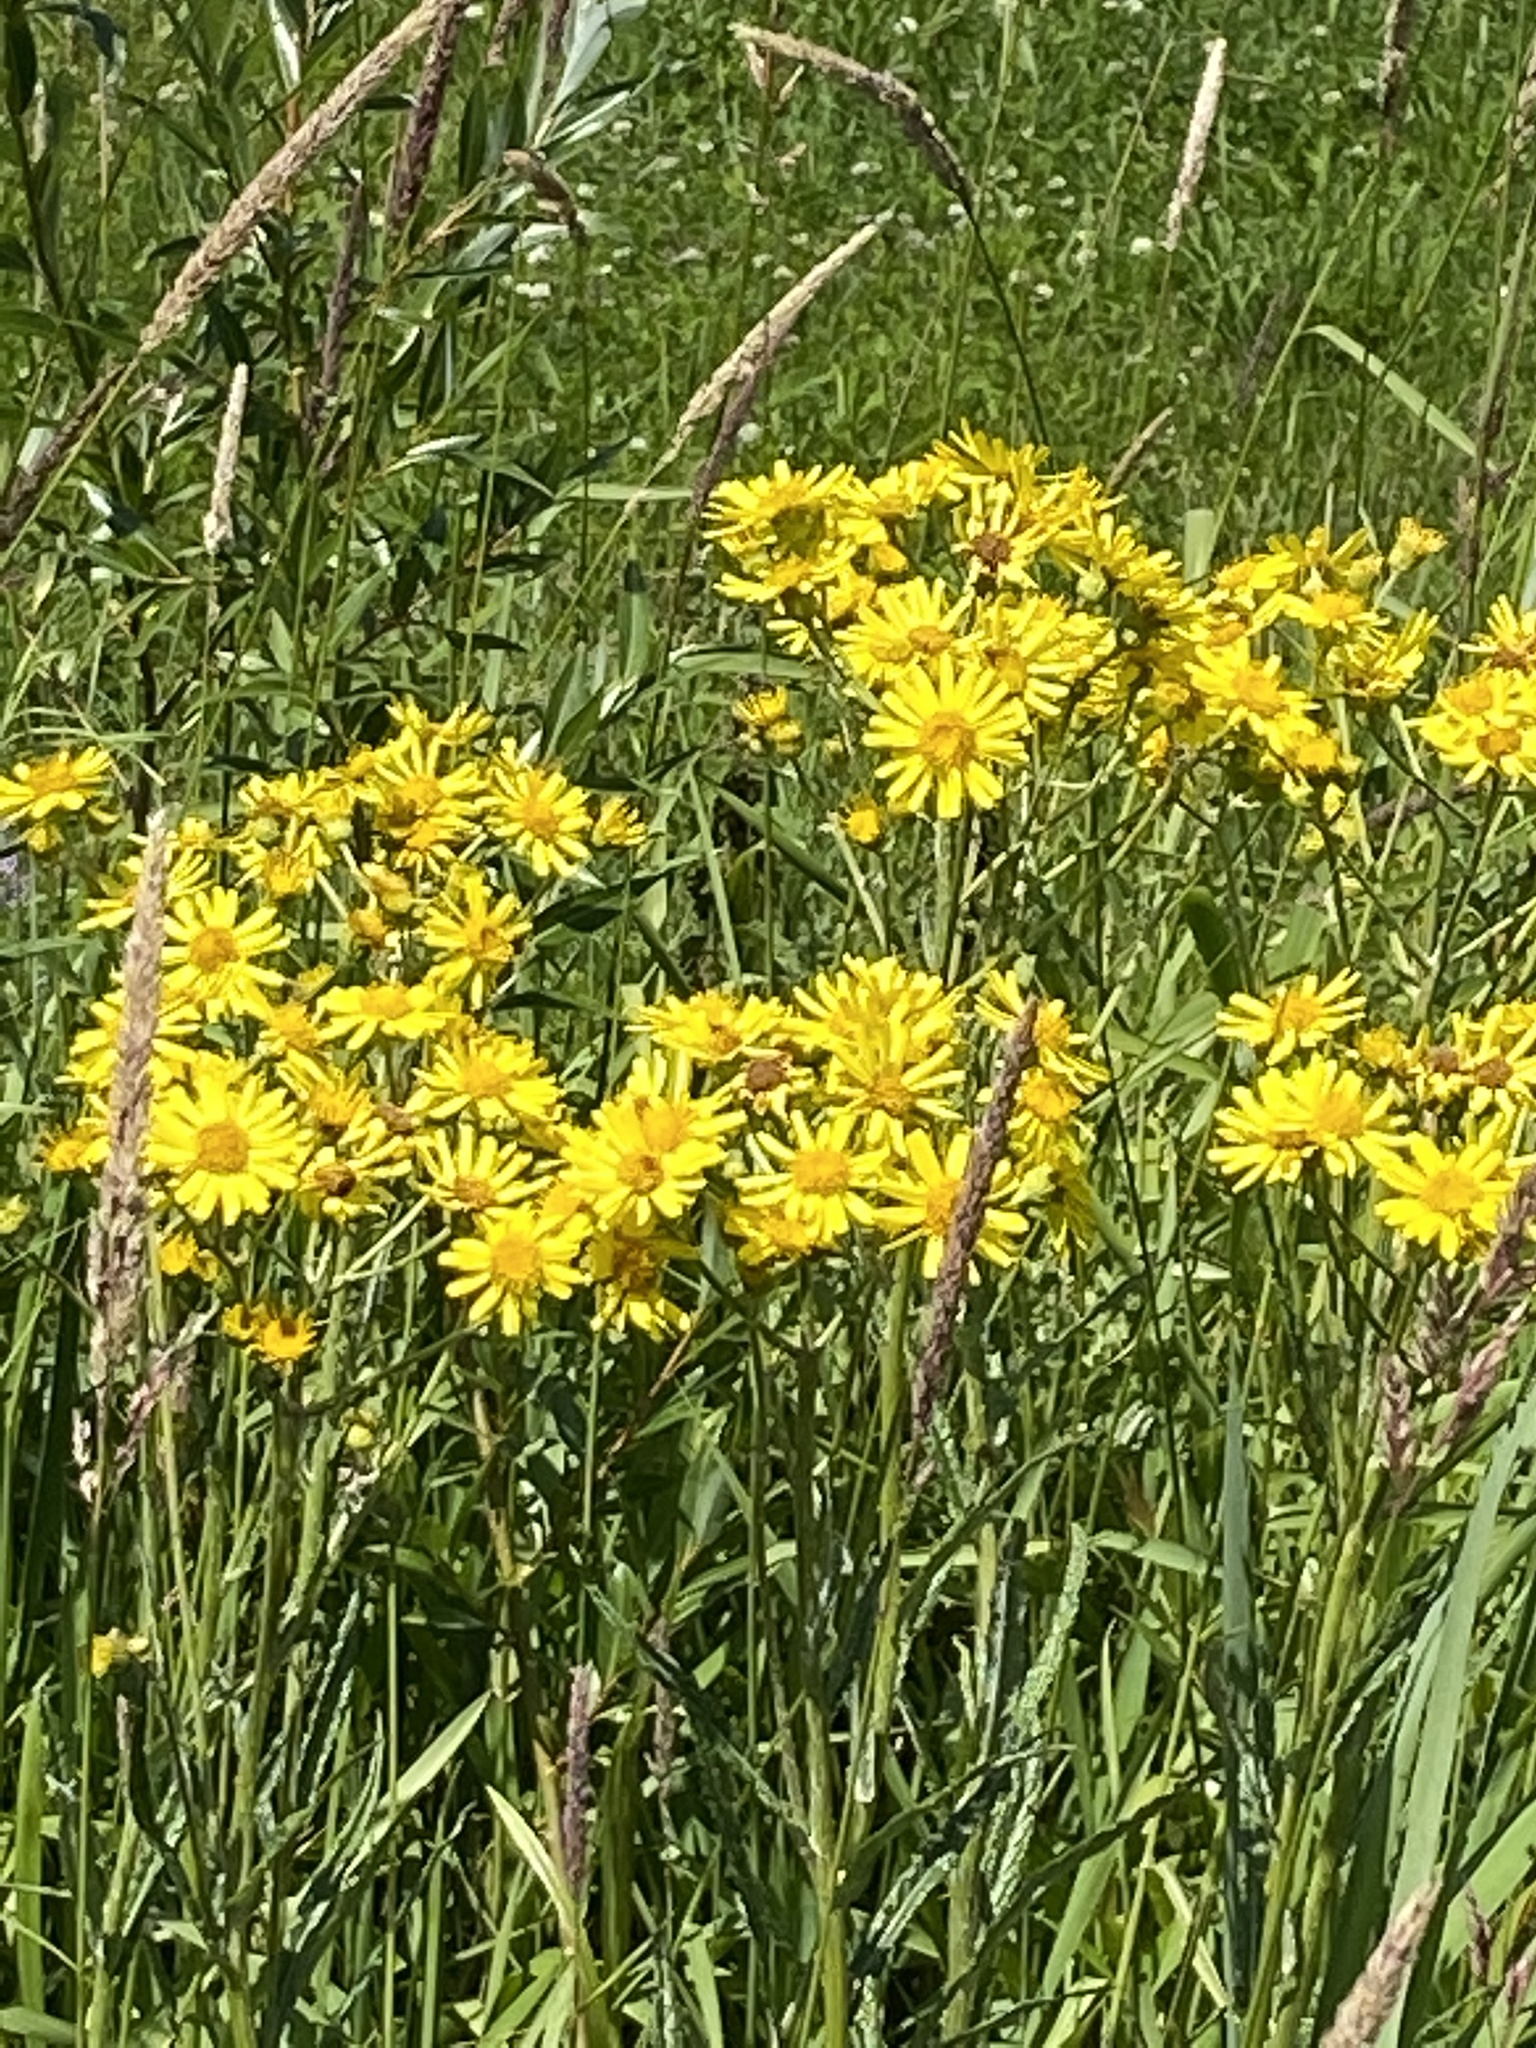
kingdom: Plantae
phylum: Tracheophyta
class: Magnoliopsida
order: Asterales
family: Asteraceae
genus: Jacobaea
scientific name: Jacobaea vulgaris
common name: Stinking willie
